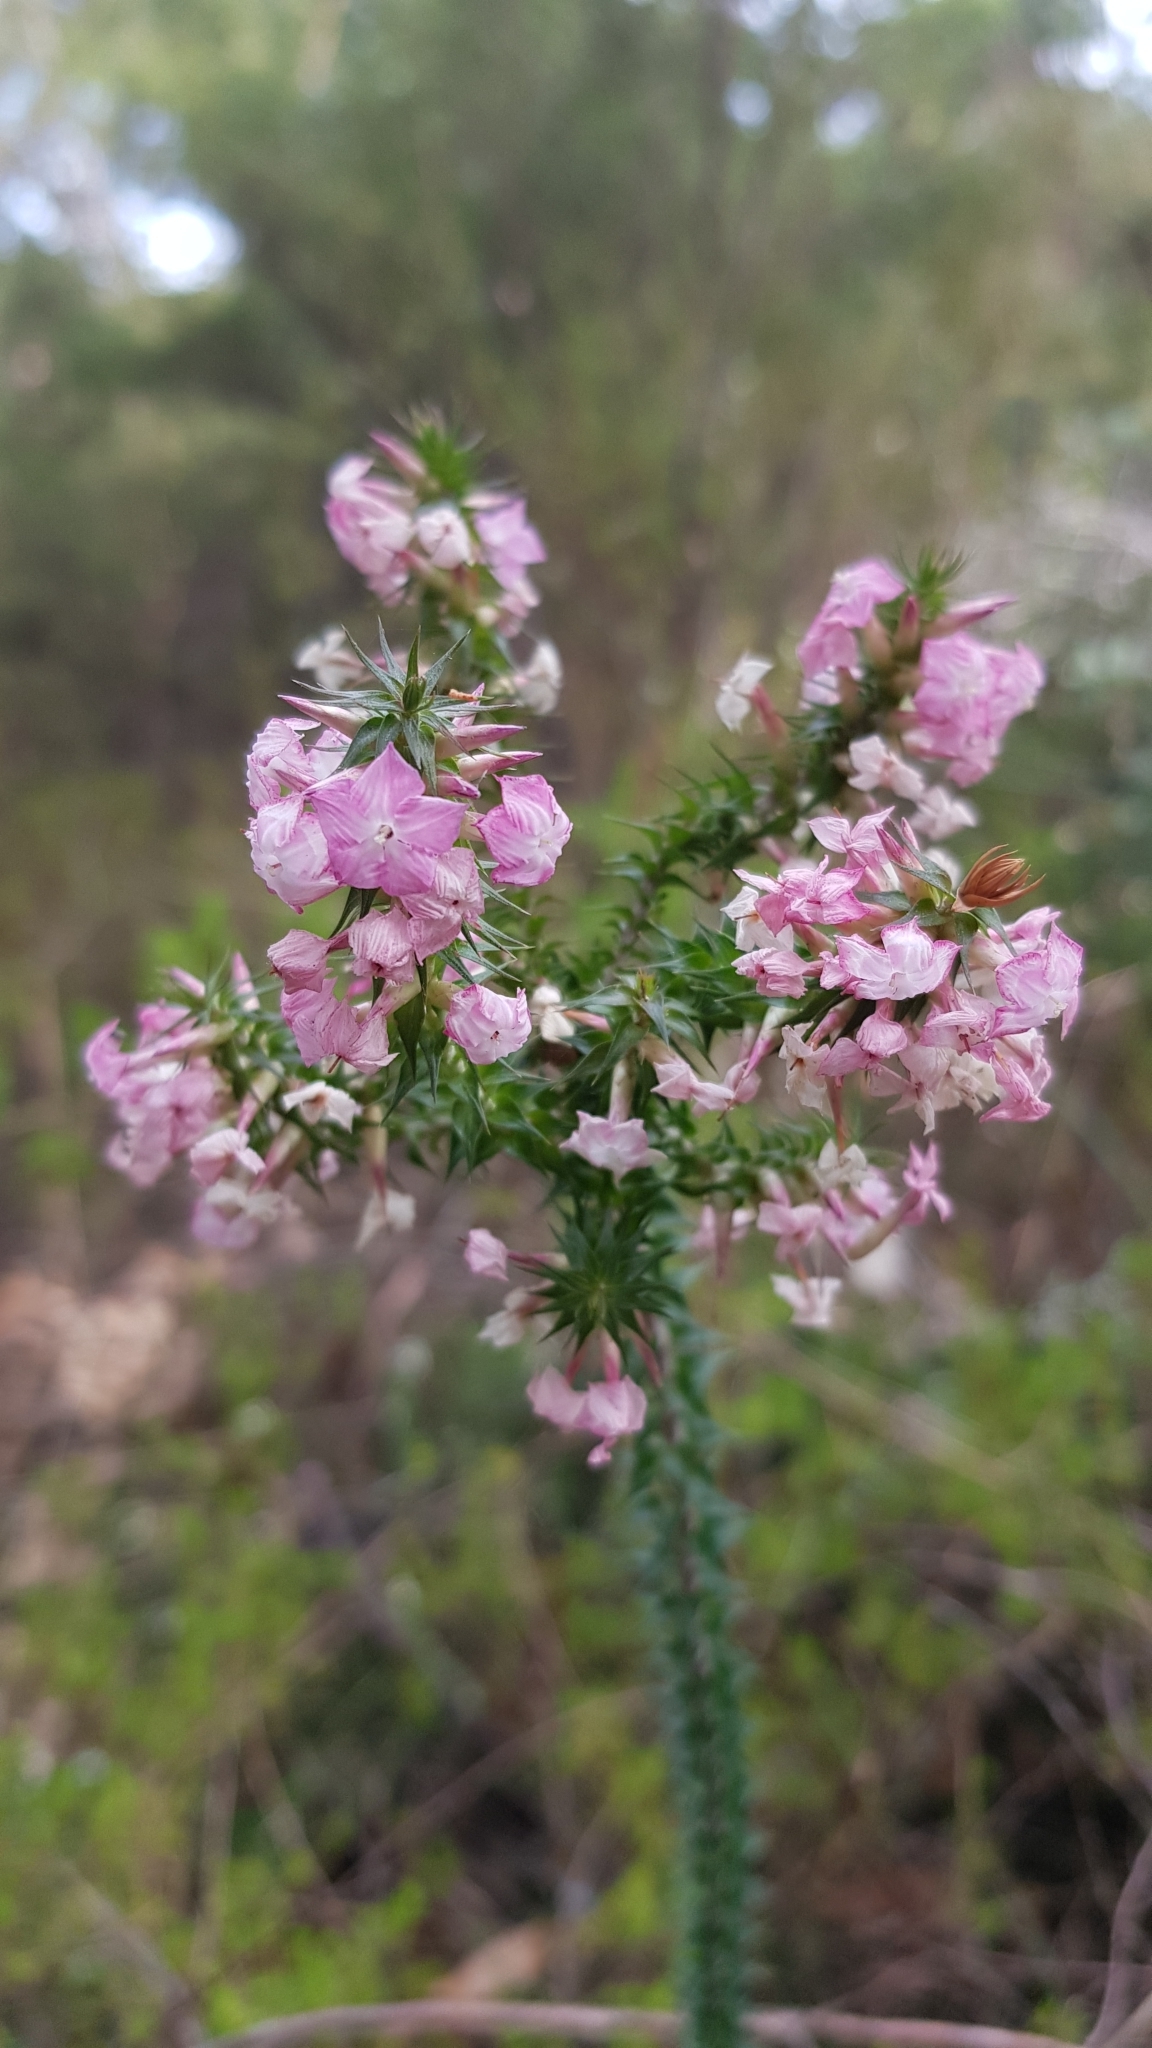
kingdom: Plantae
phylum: Tracheophyta
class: Magnoliopsida
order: Ericales
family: Ericaceae
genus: Woollsia
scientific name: Woollsia pungens
